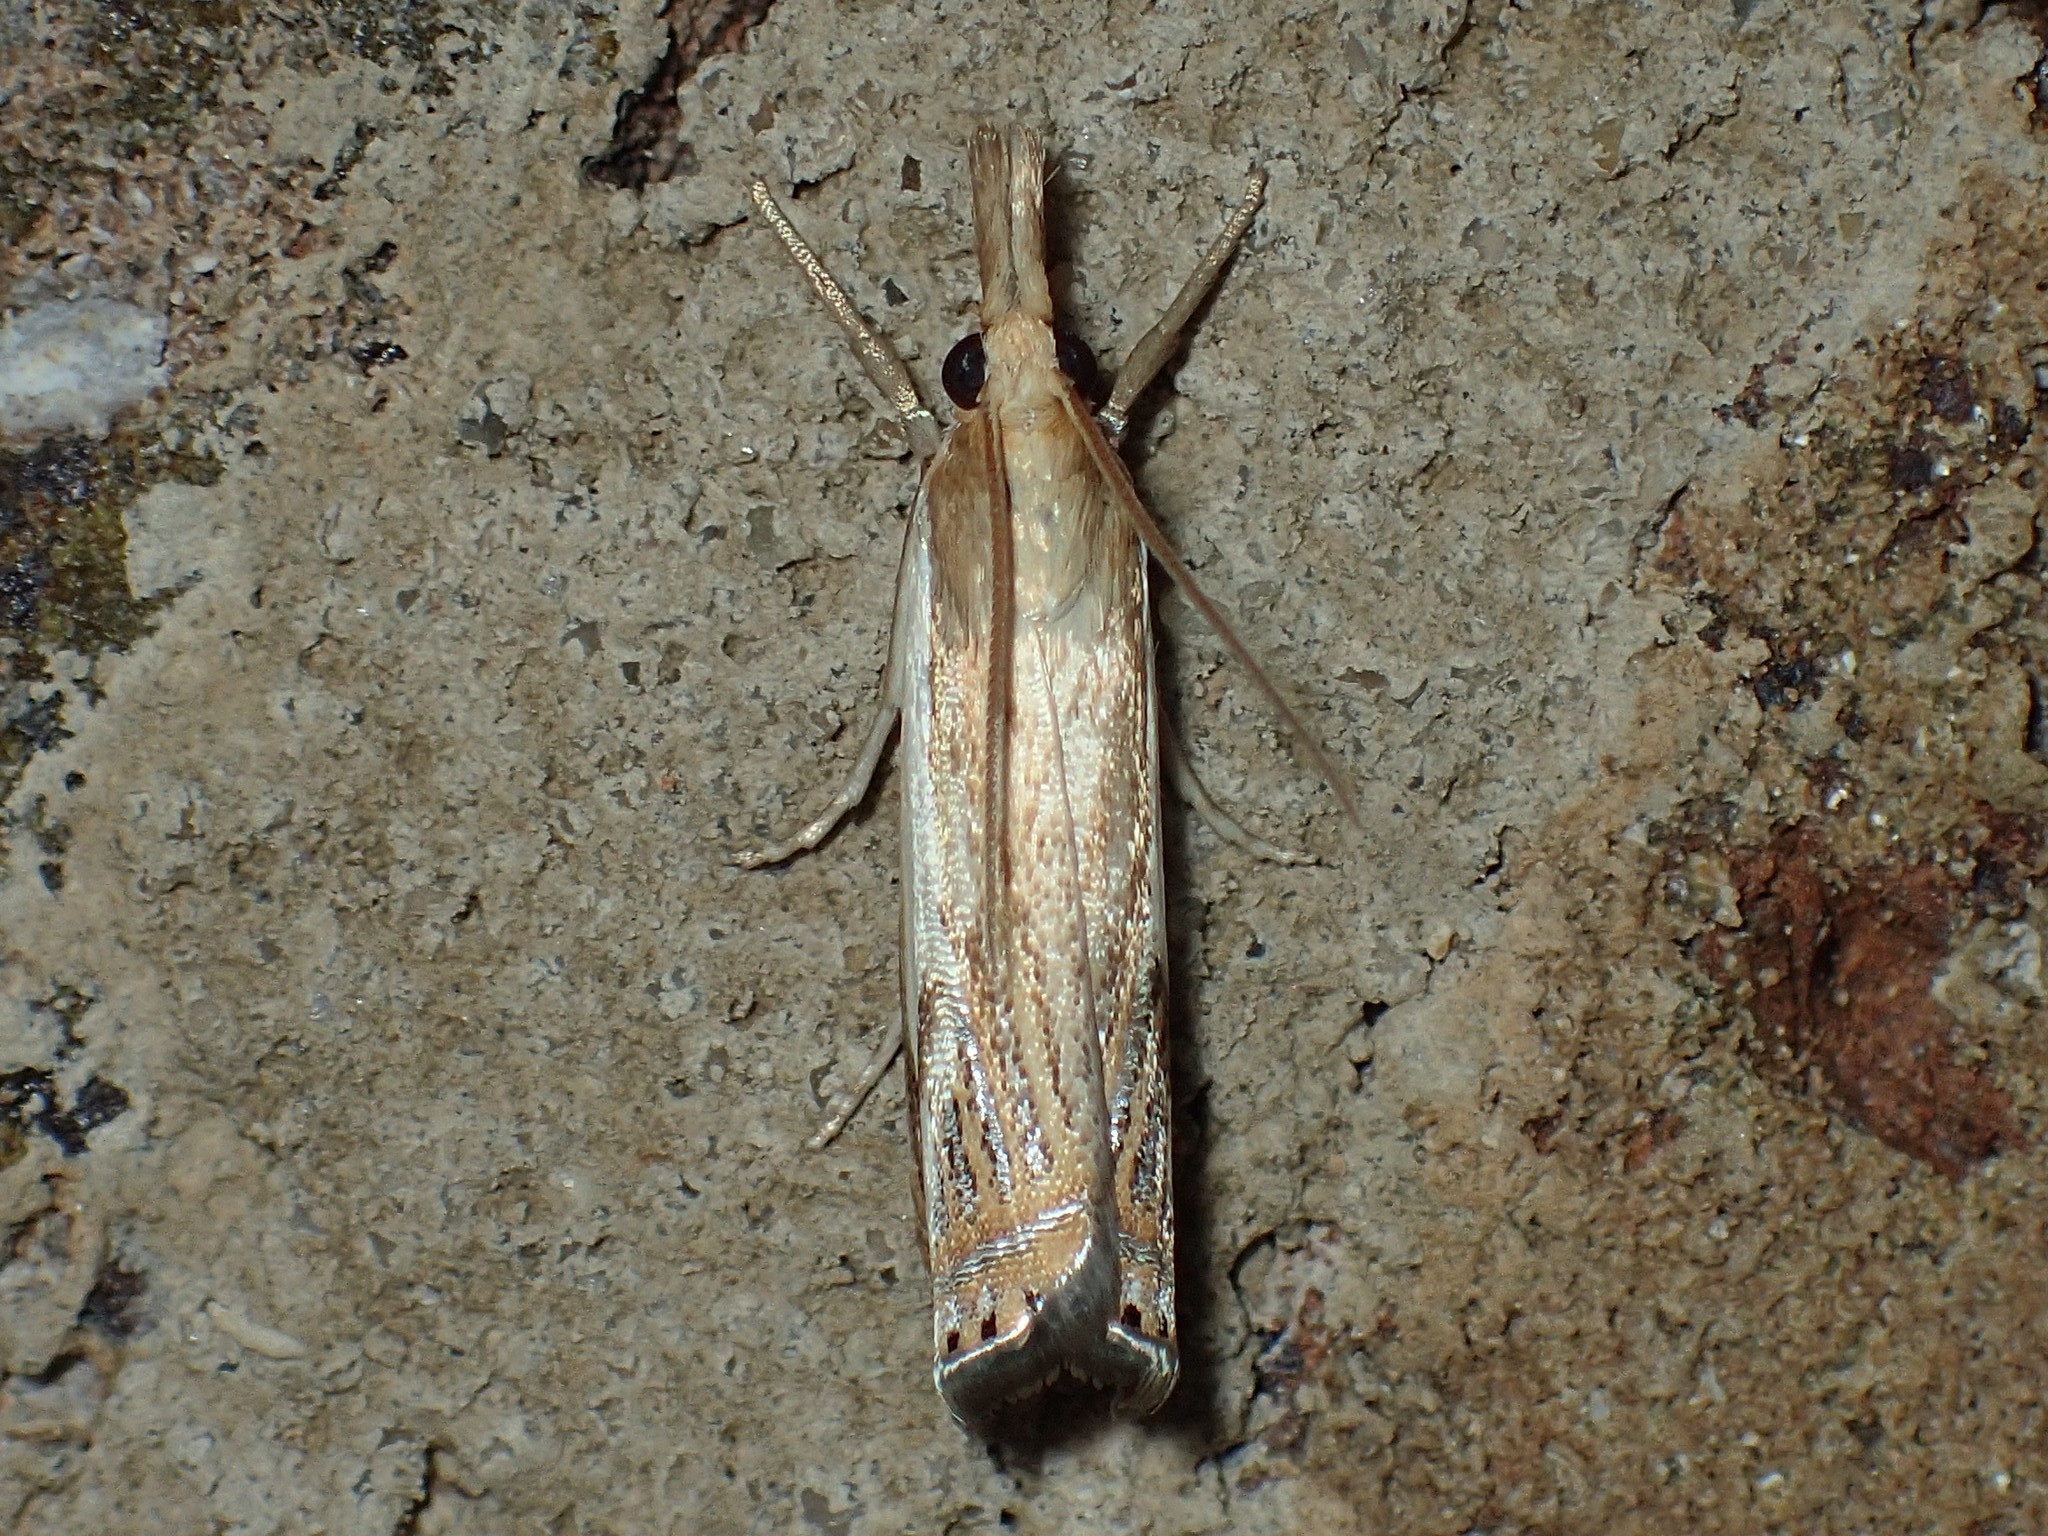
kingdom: Animalia
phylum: Arthropoda
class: Insecta
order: Lepidoptera
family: Crambidae
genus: Crambus
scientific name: Crambus
